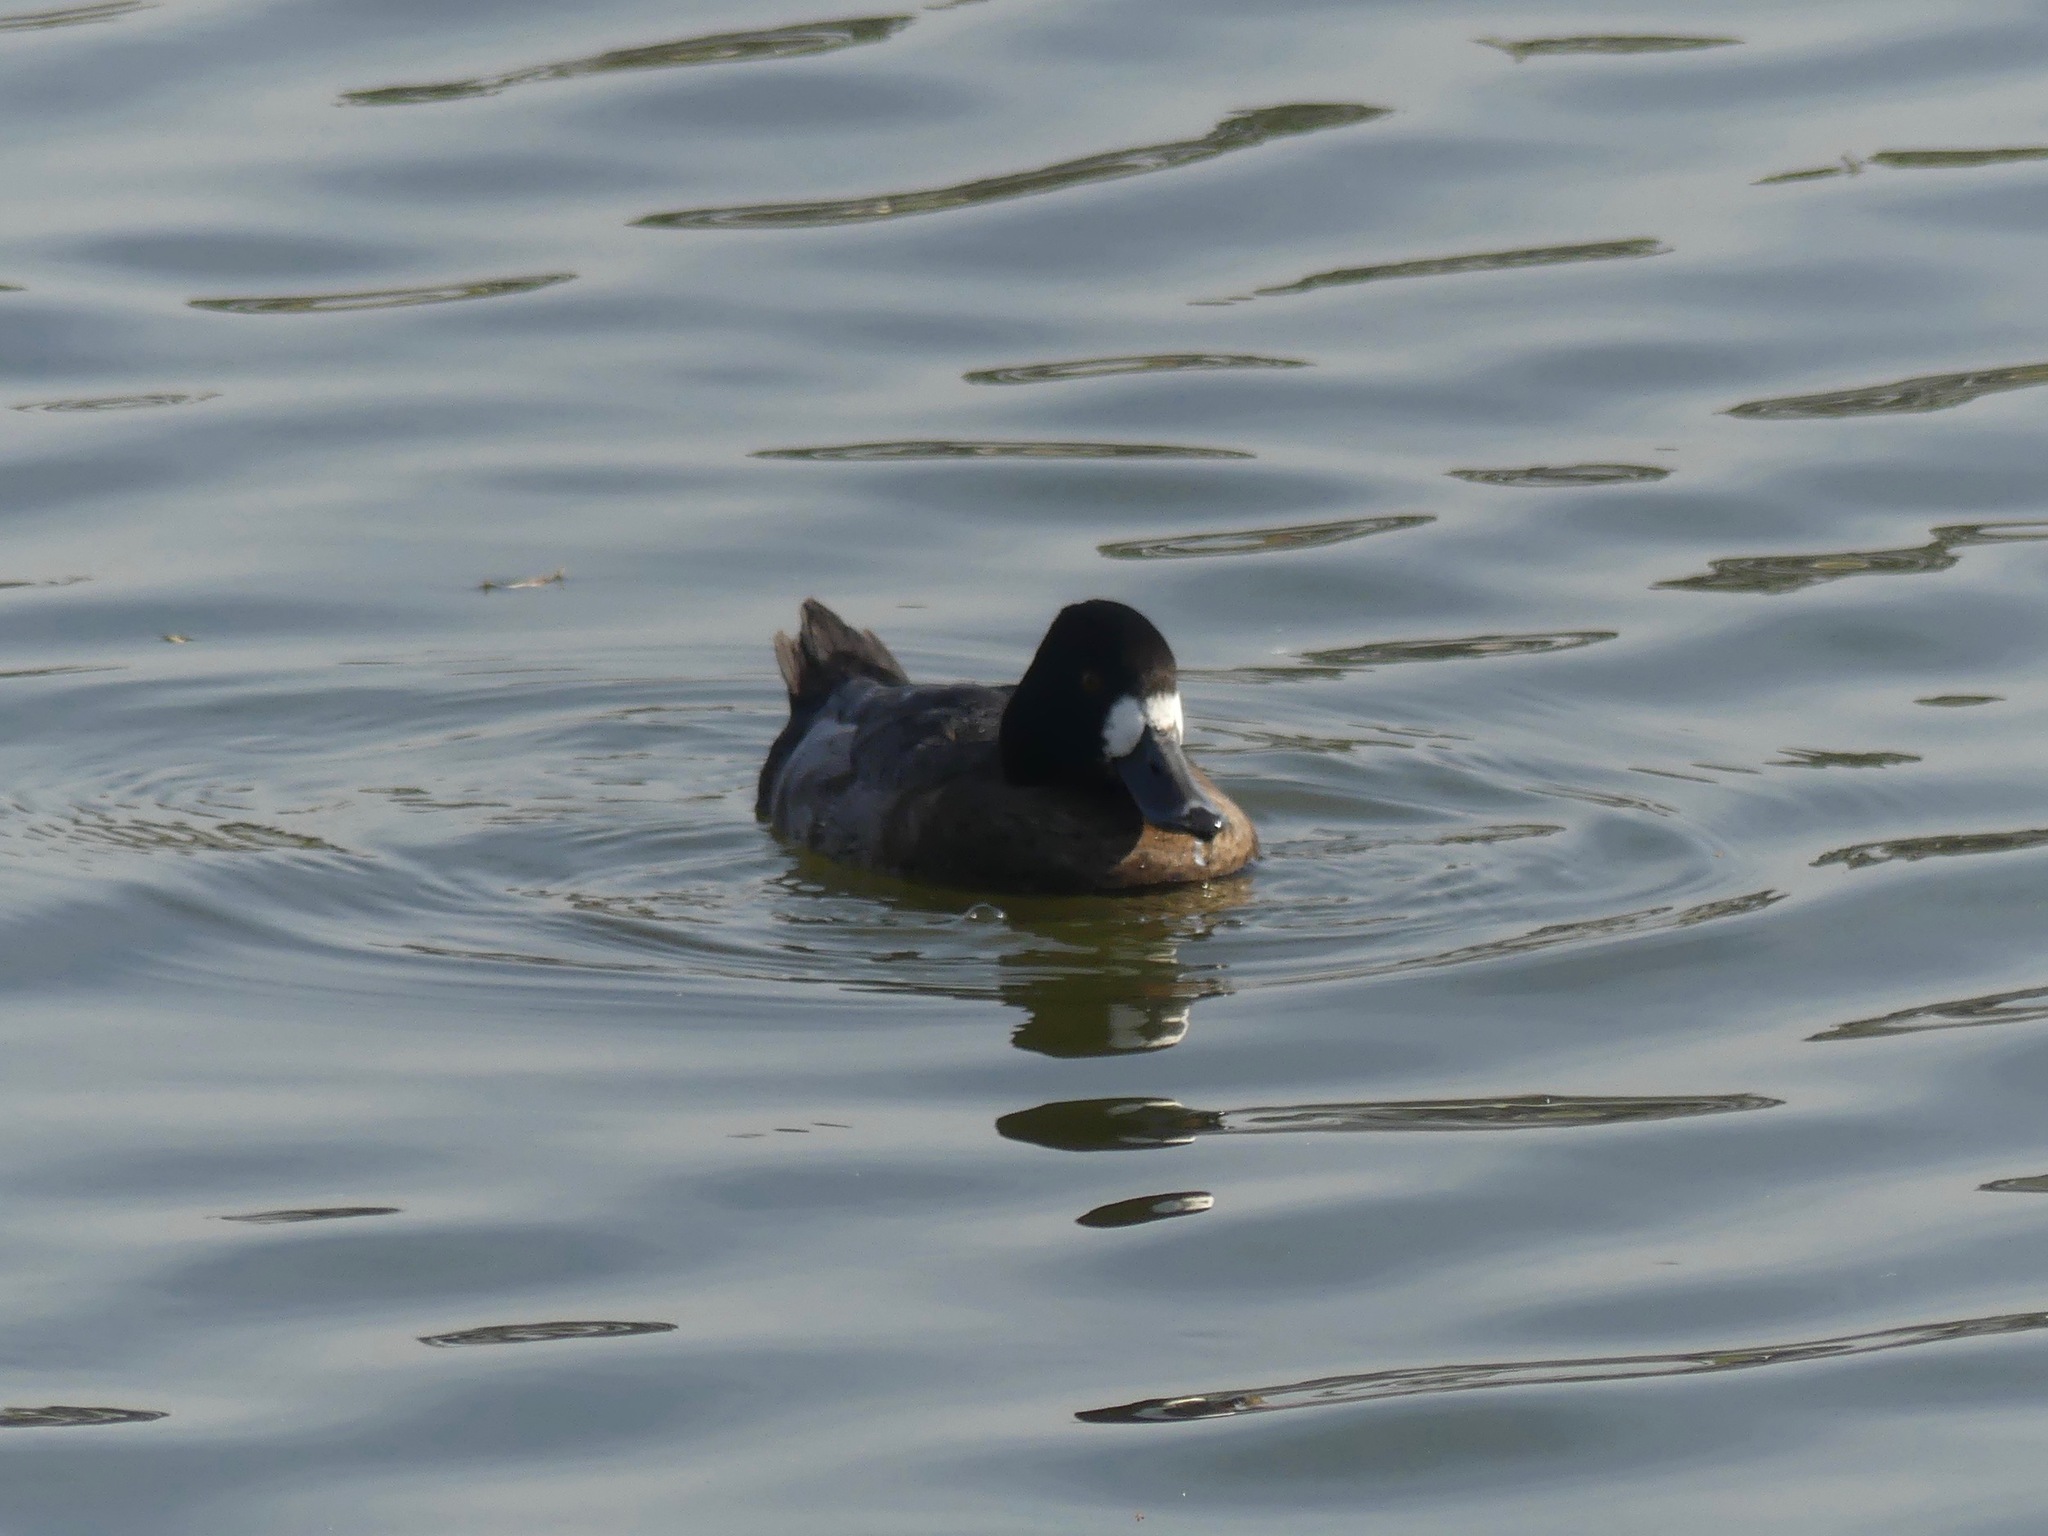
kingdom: Animalia
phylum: Chordata
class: Aves
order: Anseriformes
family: Anatidae
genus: Aythya
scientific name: Aythya affinis
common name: Lesser scaup
